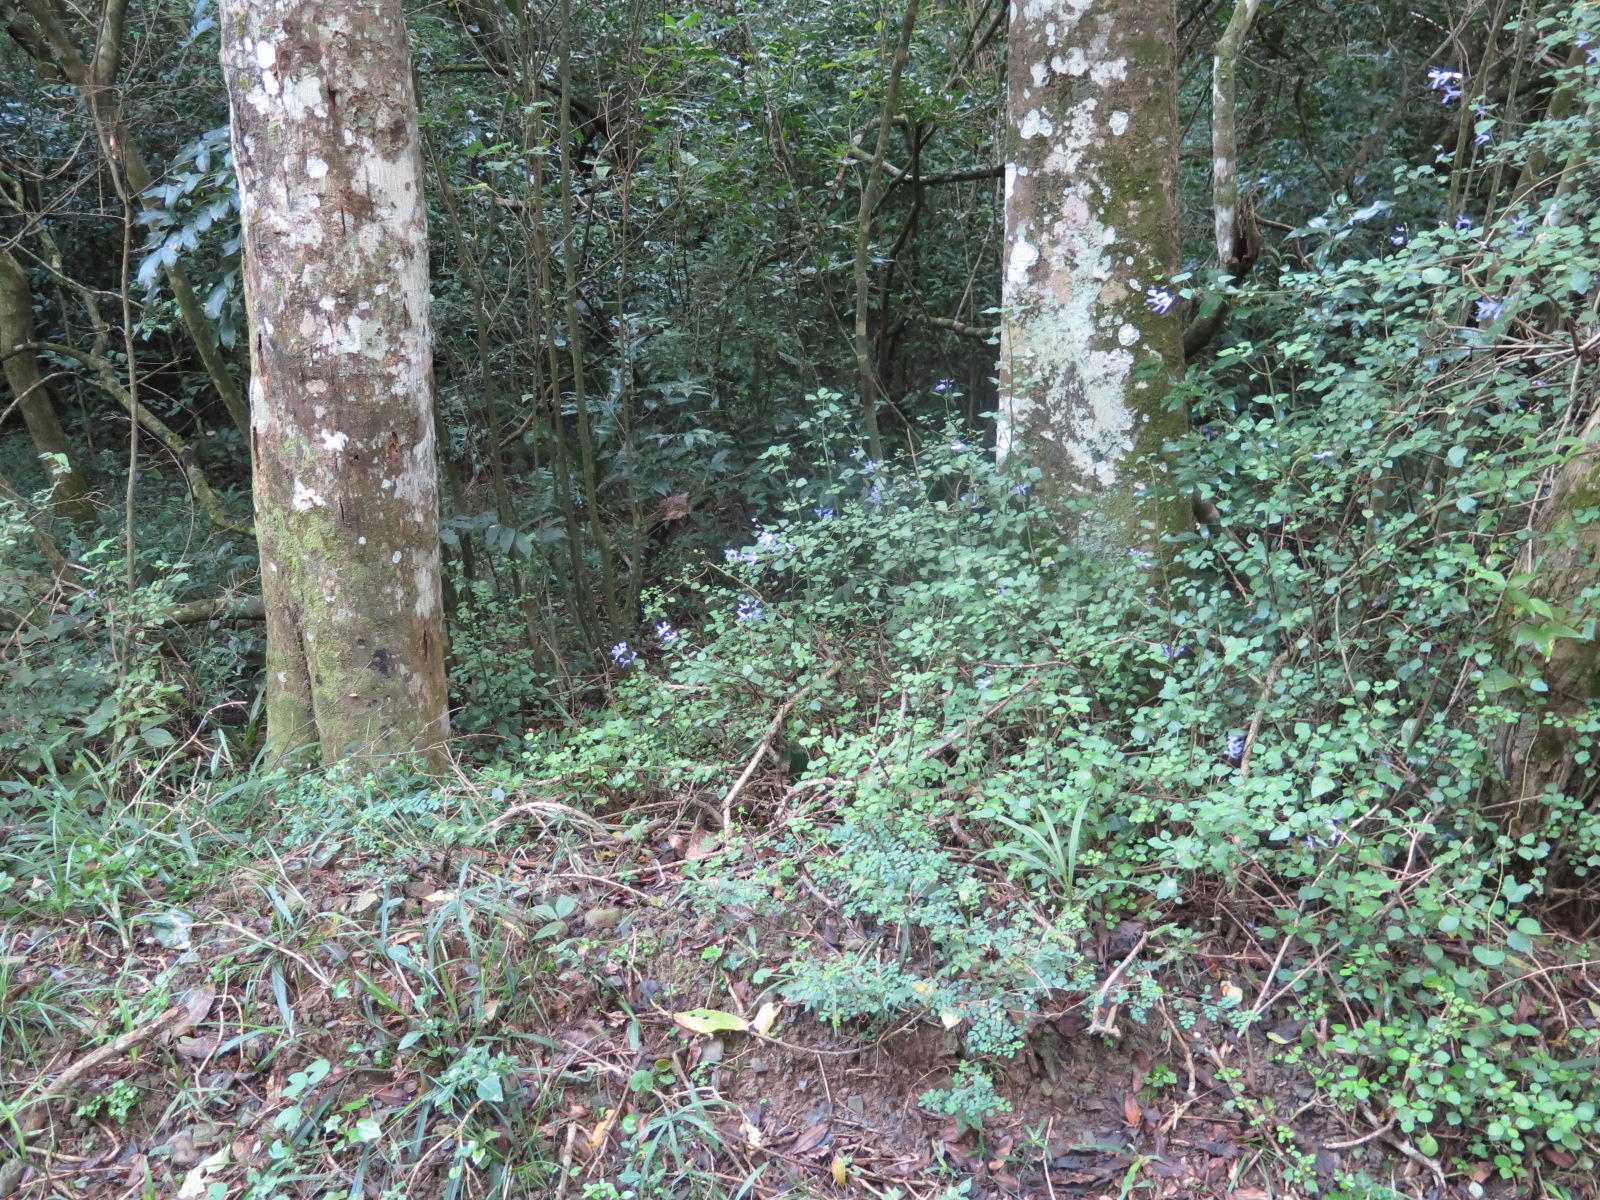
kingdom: Plantae
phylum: Tracheophyta
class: Magnoliopsida
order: Lamiales
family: Lamiaceae
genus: Plectranthus
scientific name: Plectranthus saccatus
